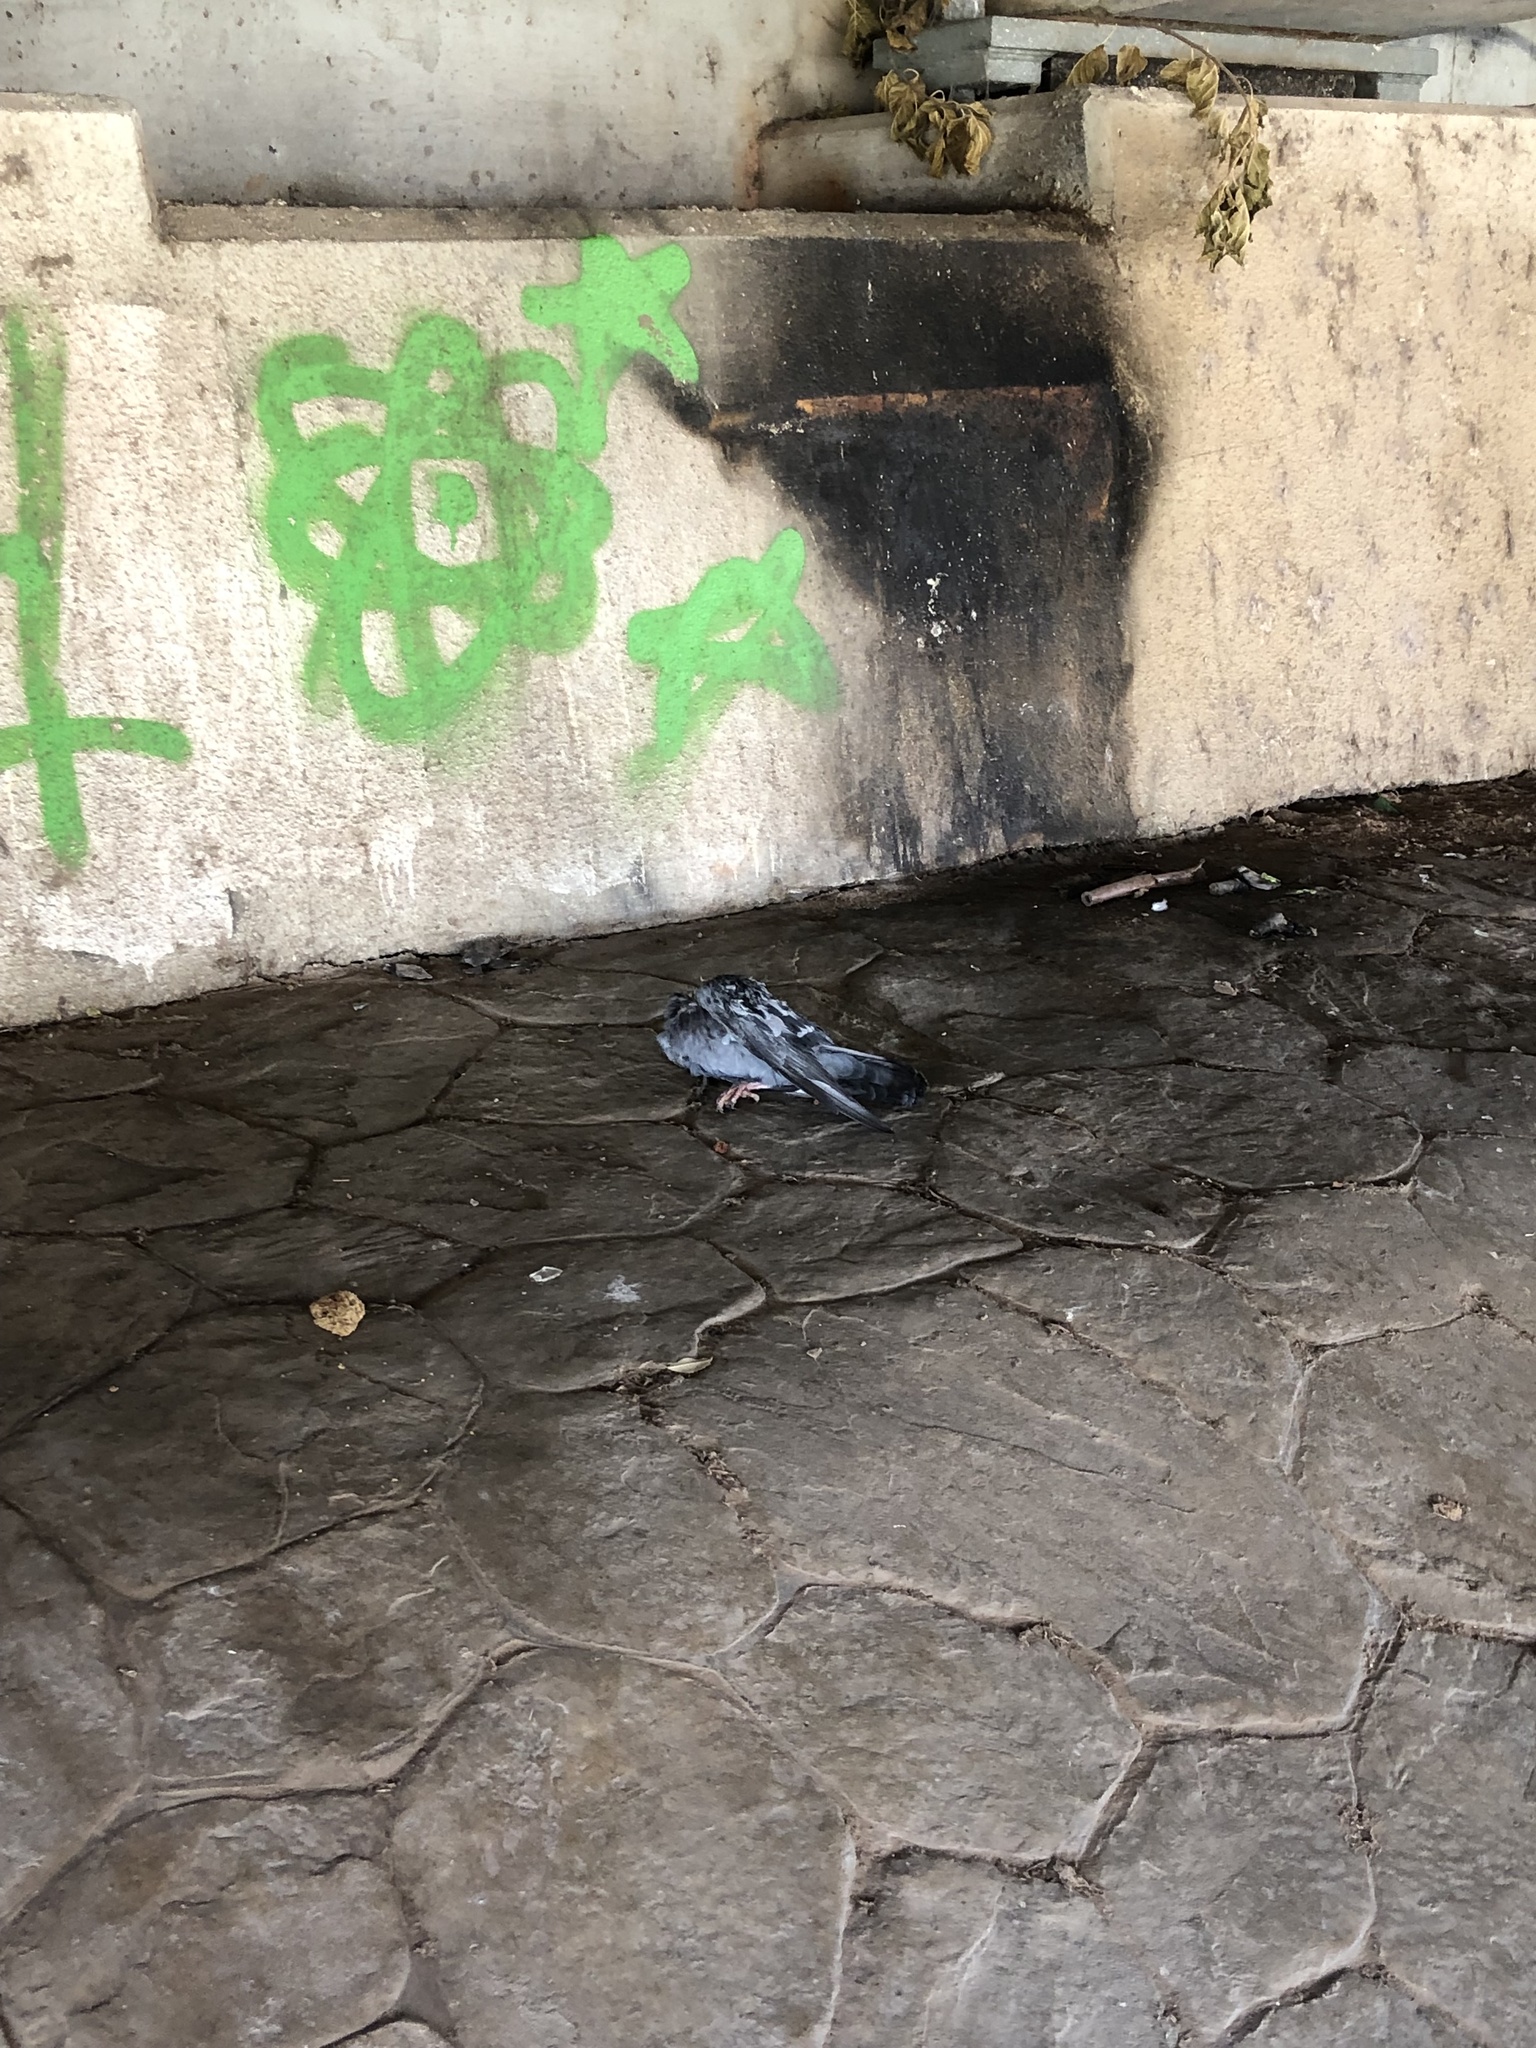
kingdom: Animalia
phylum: Chordata
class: Aves
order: Columbiformes
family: Columbidae
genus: Columba
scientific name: Columba livia
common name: Rock pigeon
